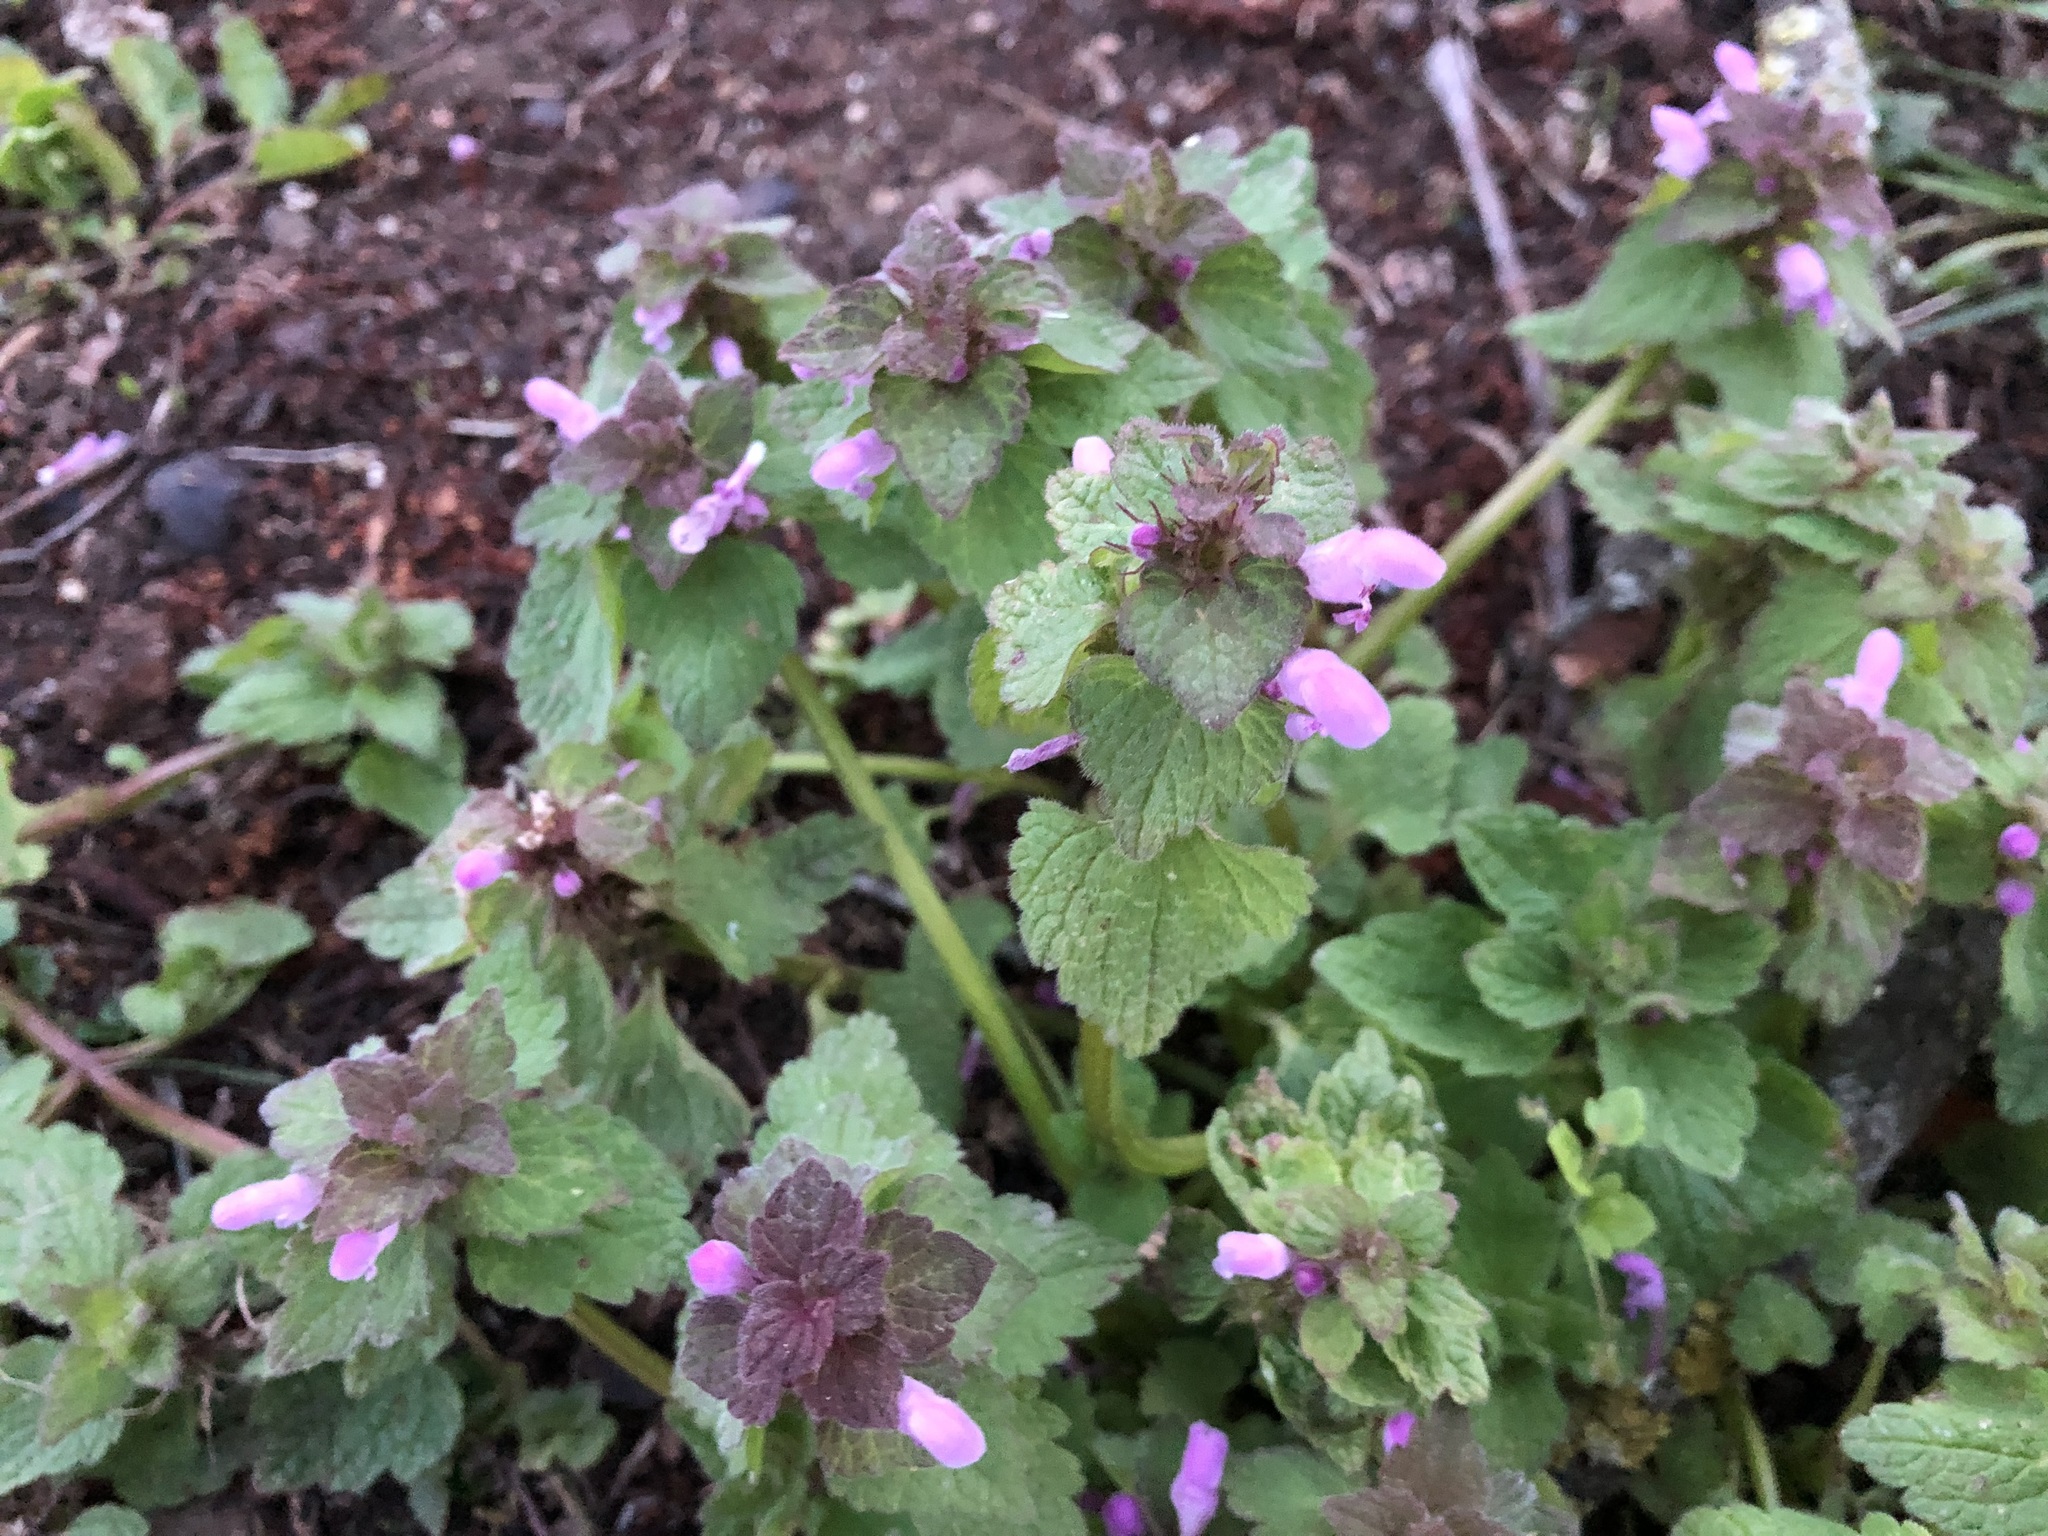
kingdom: Plantae
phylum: Tracheophyta
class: Magnoliopsida
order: Lamiales
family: Lamiaceae
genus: Lamium
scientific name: Lamium purpureum
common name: Red dead-nettle
